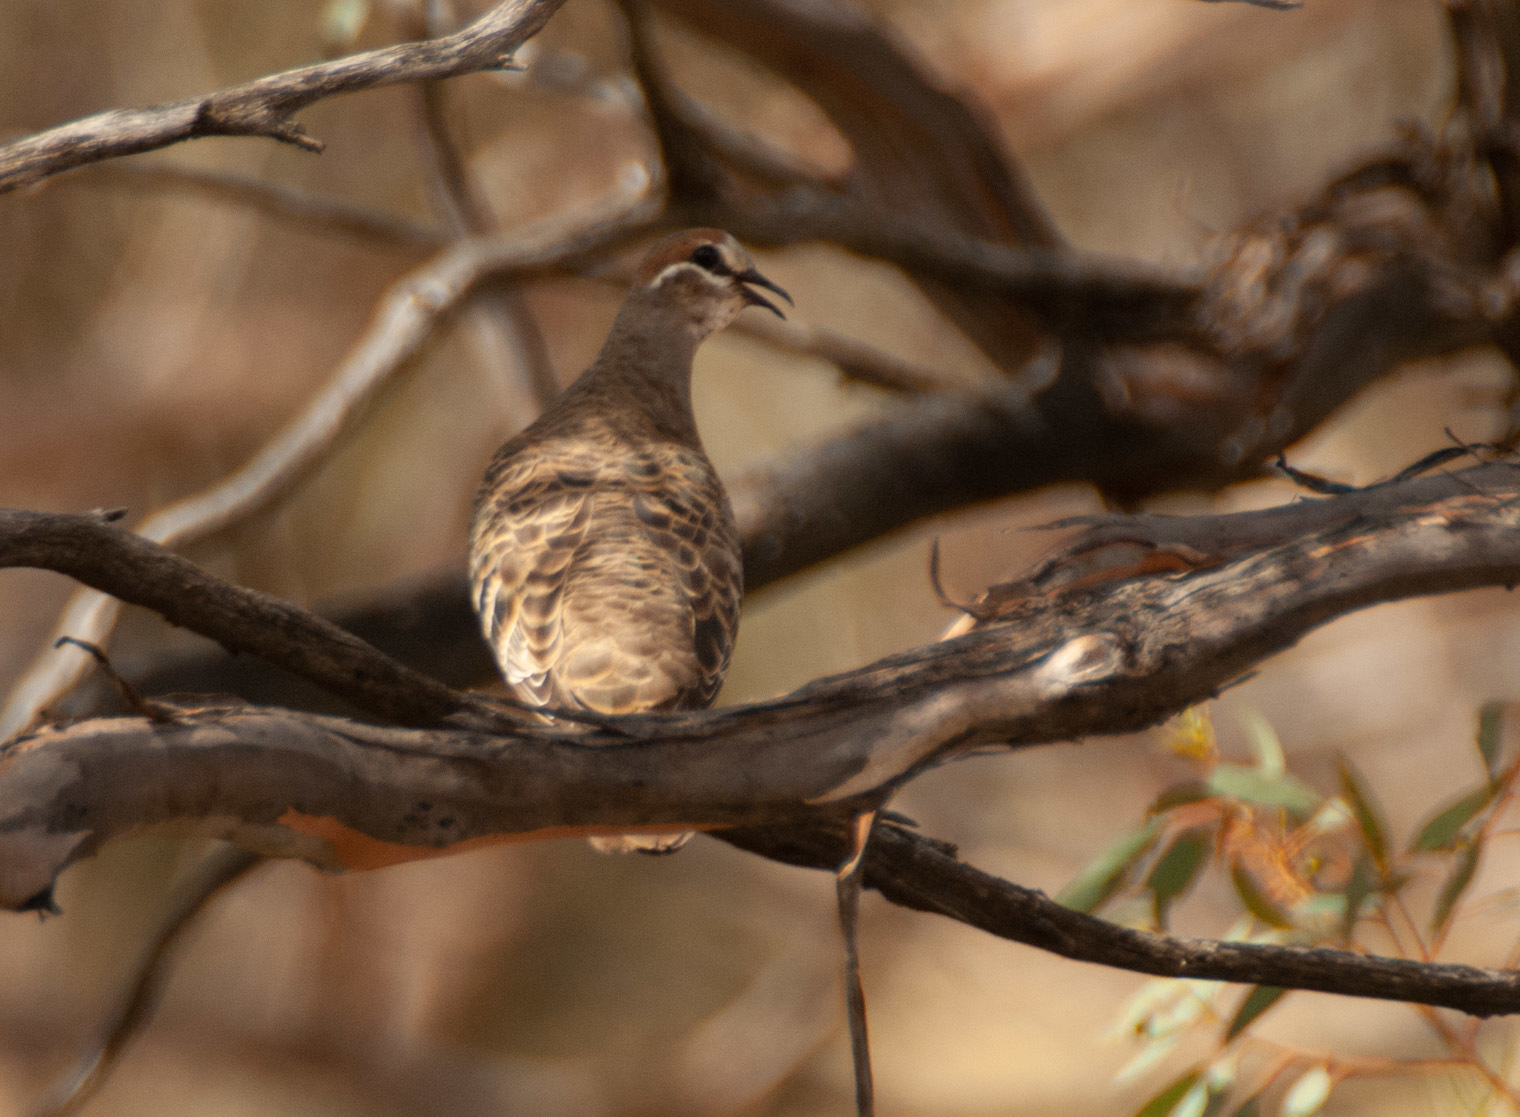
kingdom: Animalia
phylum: Chordata
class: Aves
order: Columbiformes
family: Columbidae
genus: Phaps
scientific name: Phaps chalcoptera
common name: Common bronzewing
